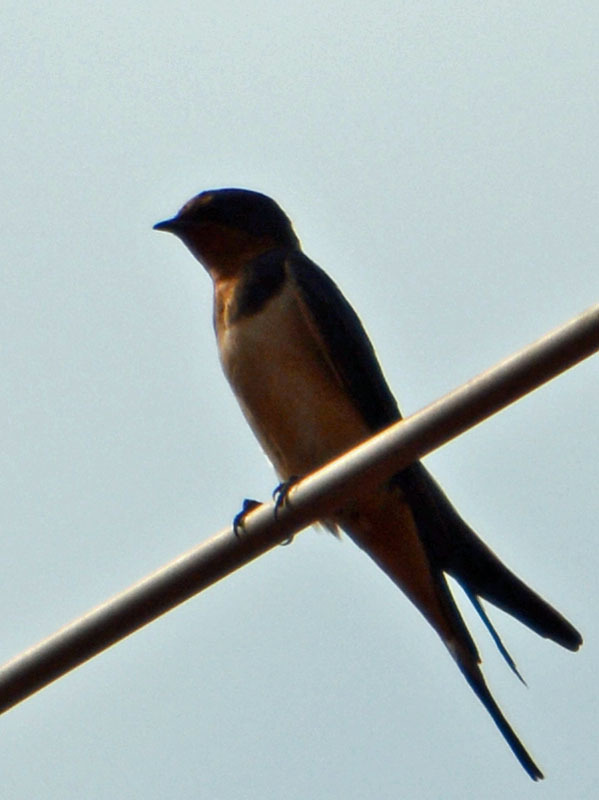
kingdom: Animalia
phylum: Chordata
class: Aves
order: Passeriformes
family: Hirundinidae
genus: Hirundo
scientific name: Hirundo rustica
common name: Barn swallow
